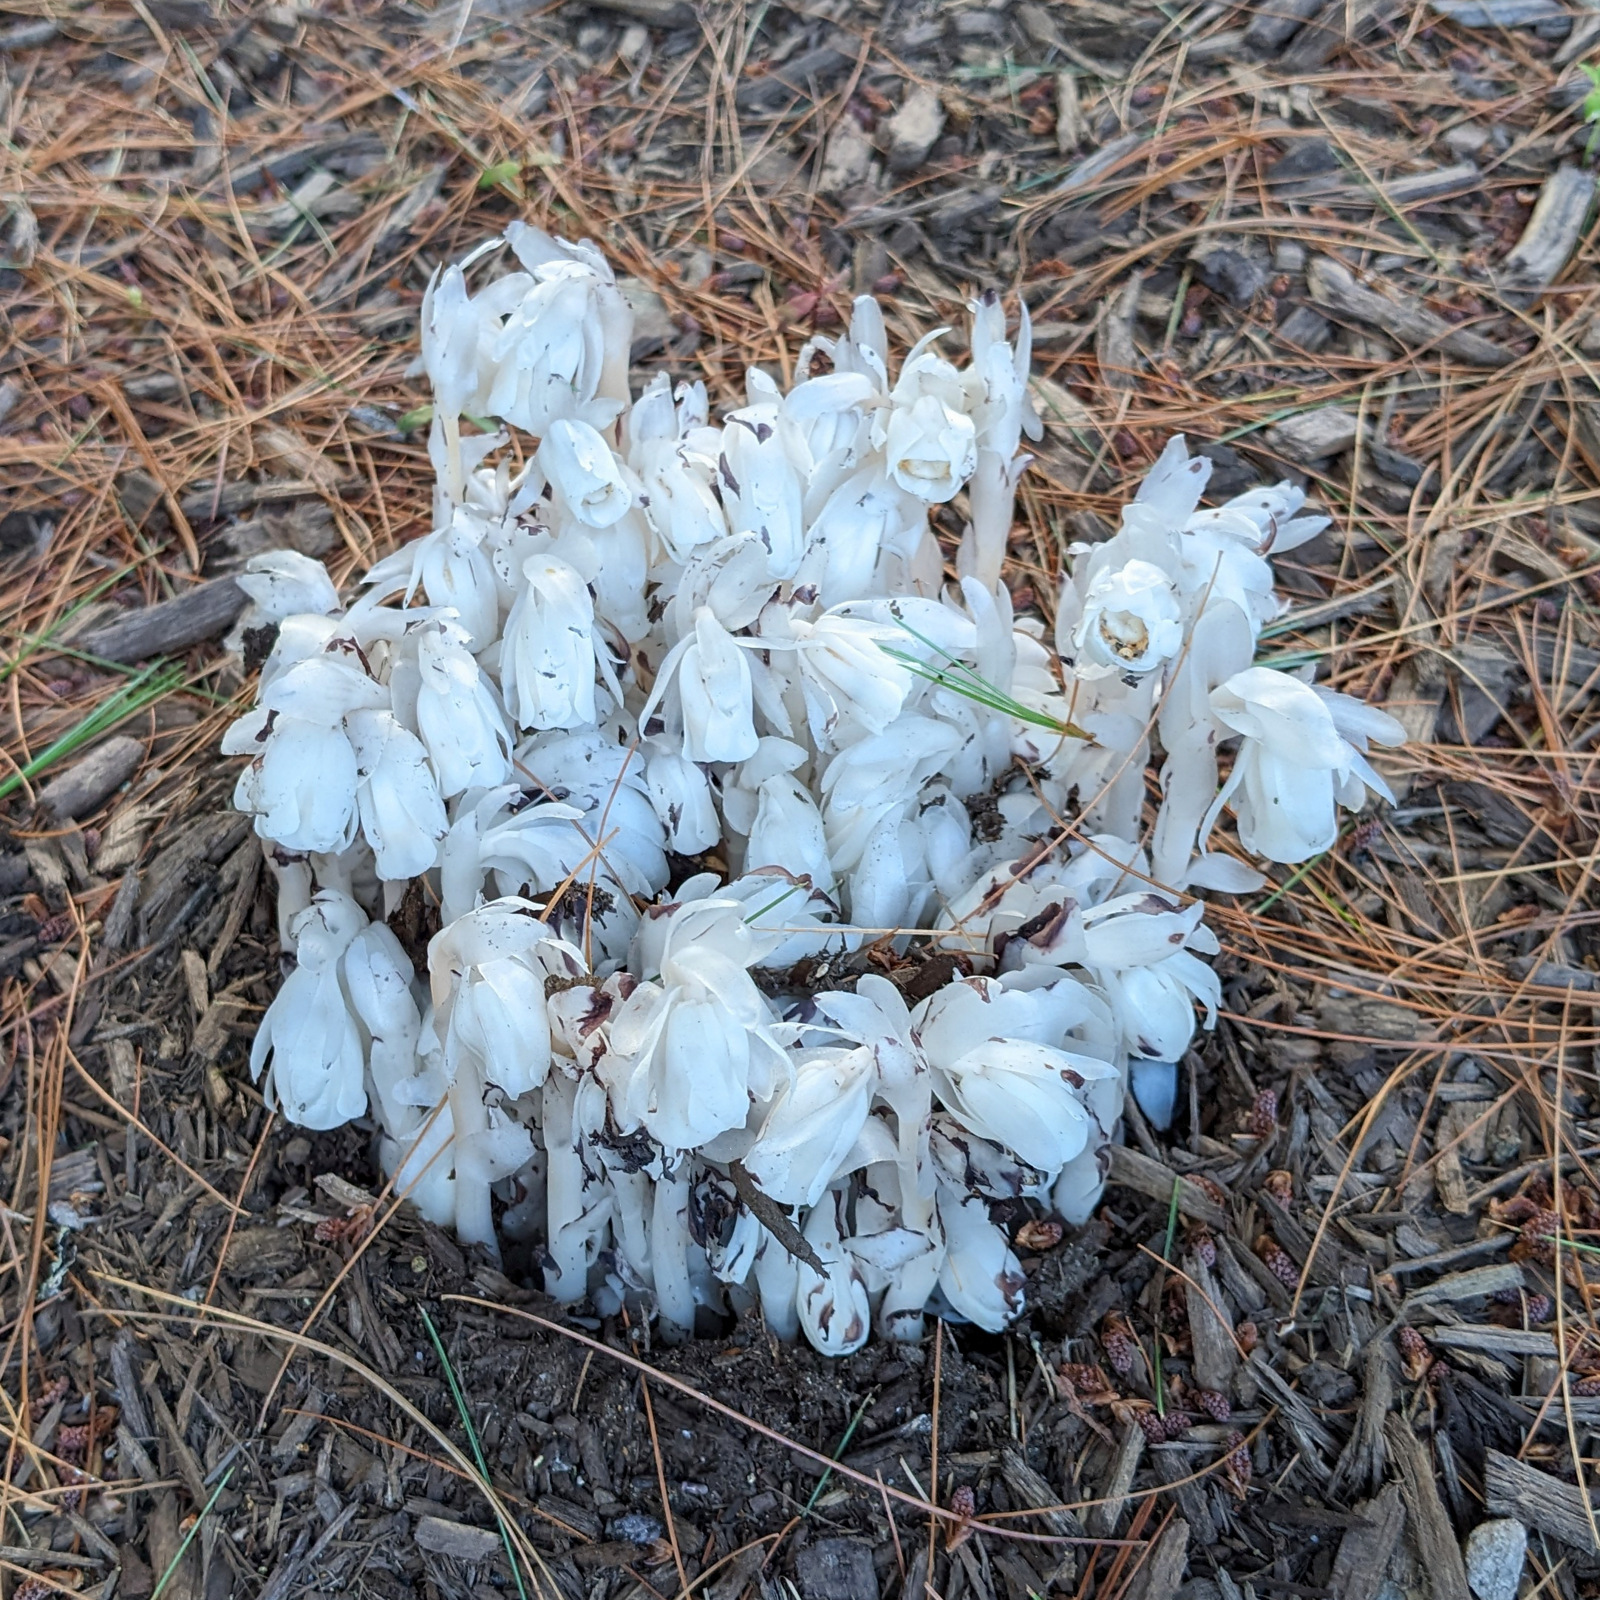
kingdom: Plantae
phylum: Tracheophyta
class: Magnoliopsida
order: Ericales
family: Ericaceae
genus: Monotropa
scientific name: Monotropa uniflora
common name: Convulsion root
